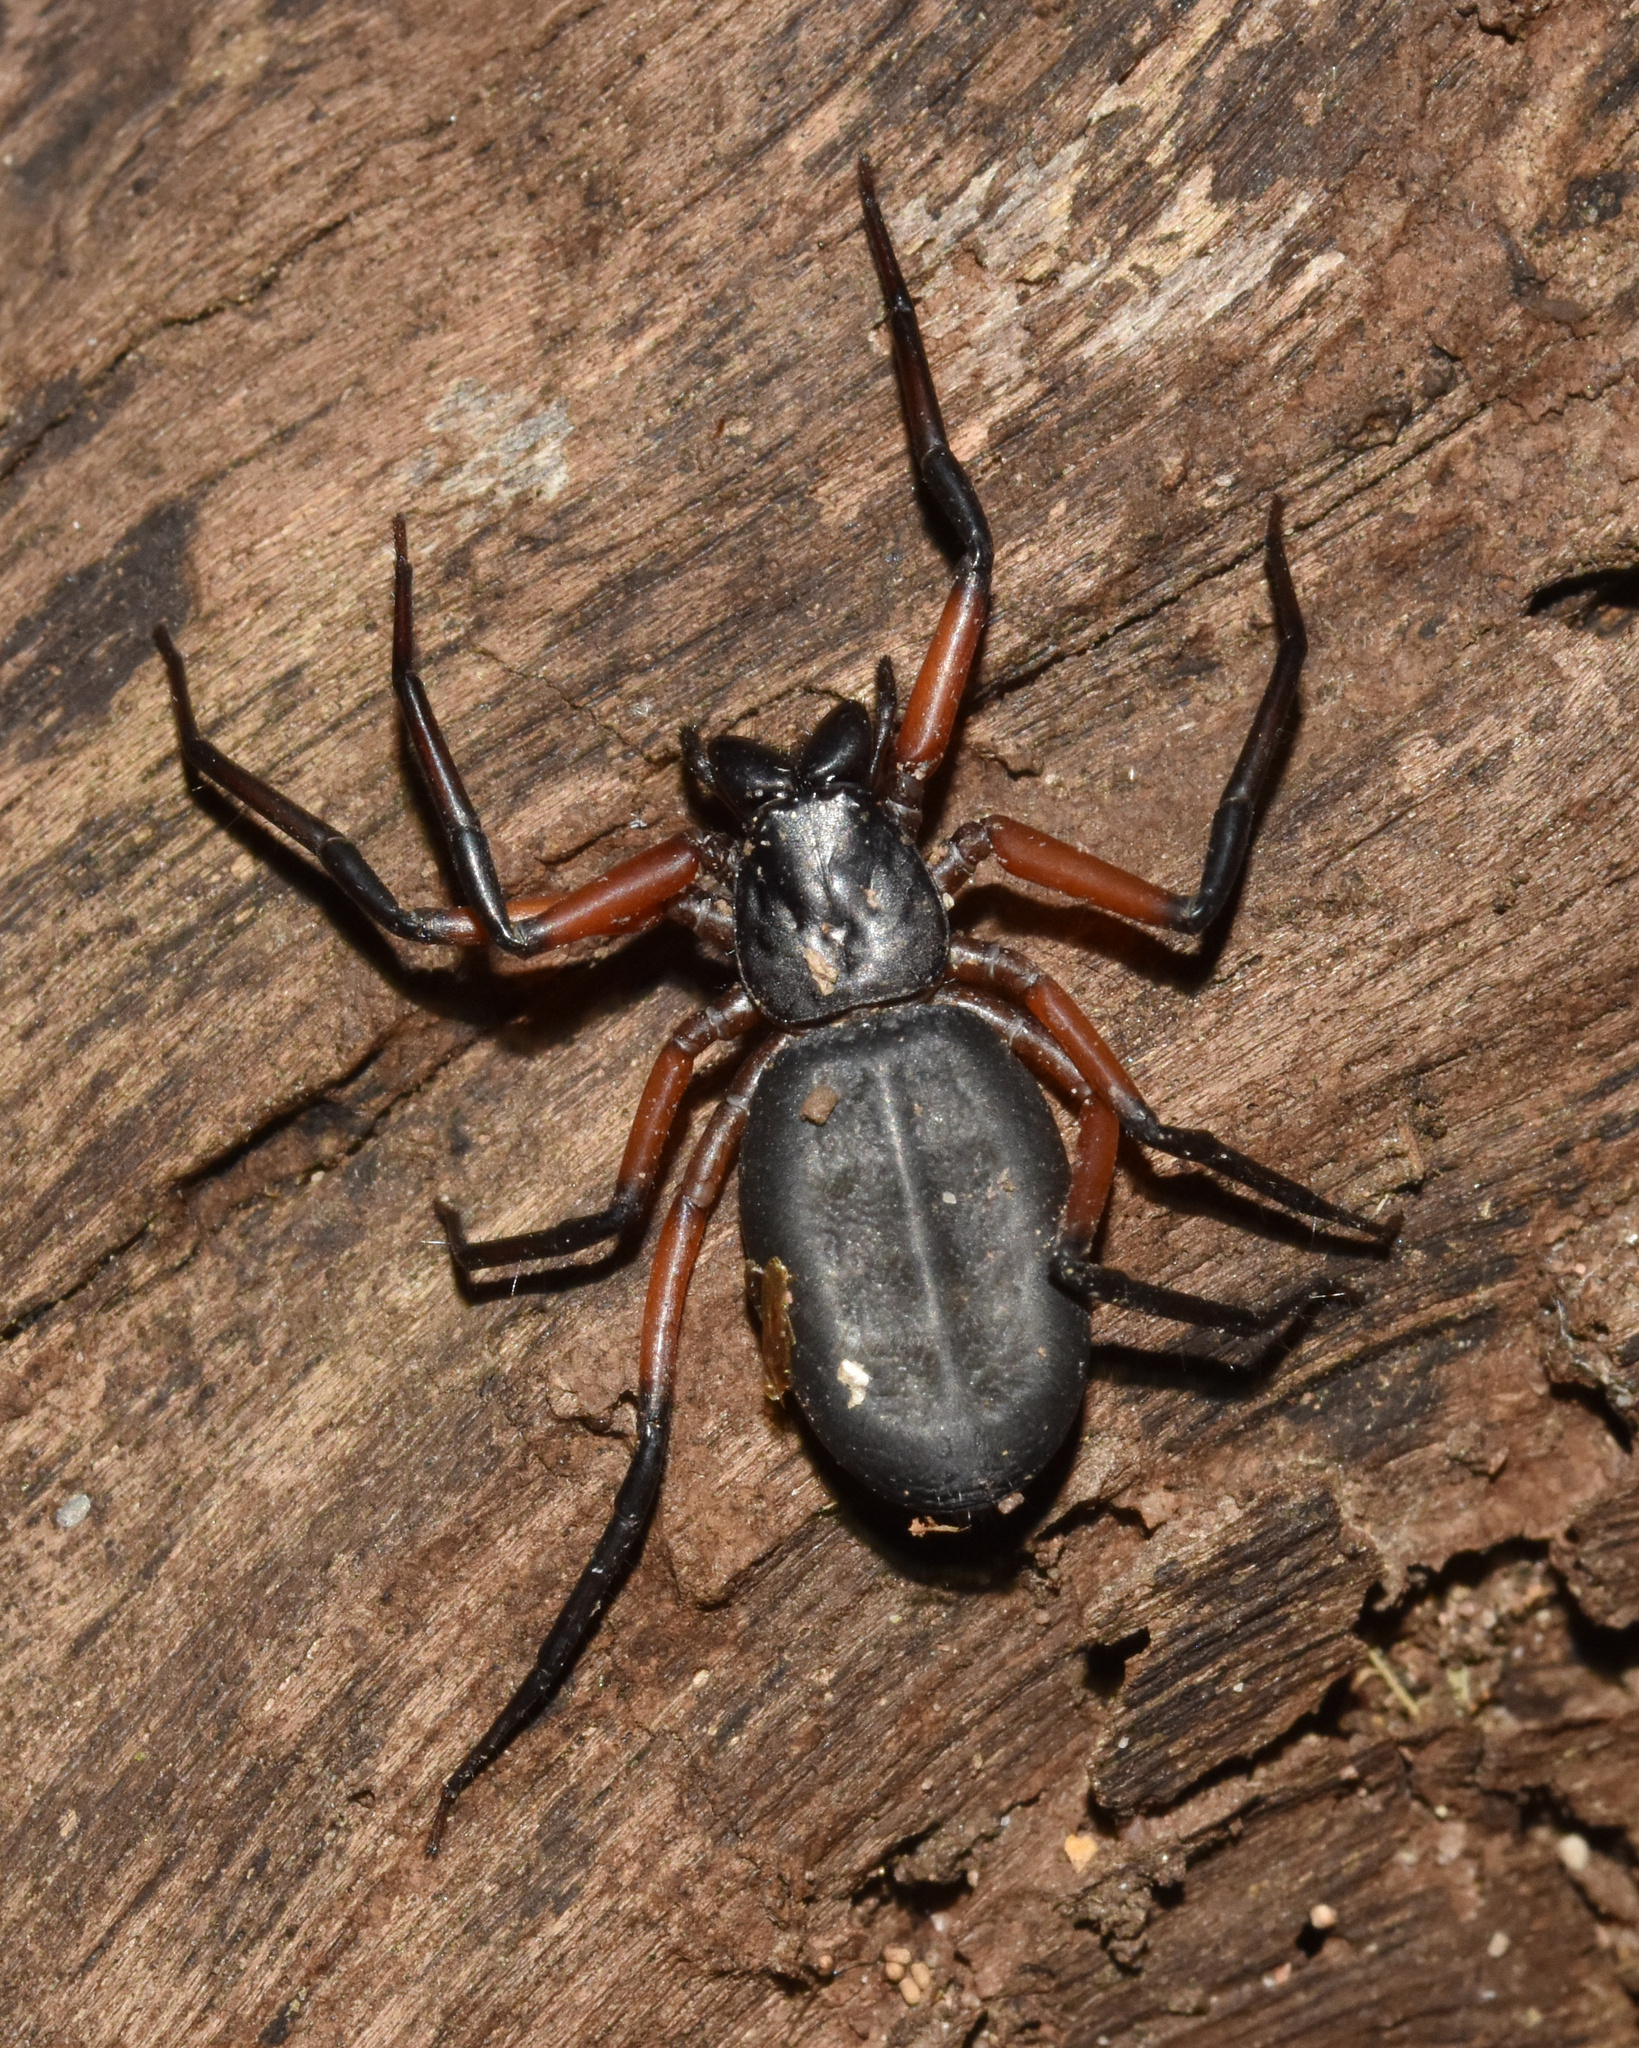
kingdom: Animalia
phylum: Arthropoda
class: Arachnida
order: Araneae
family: Trochanteriidae
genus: Platyoides
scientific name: Platyoides walteri
